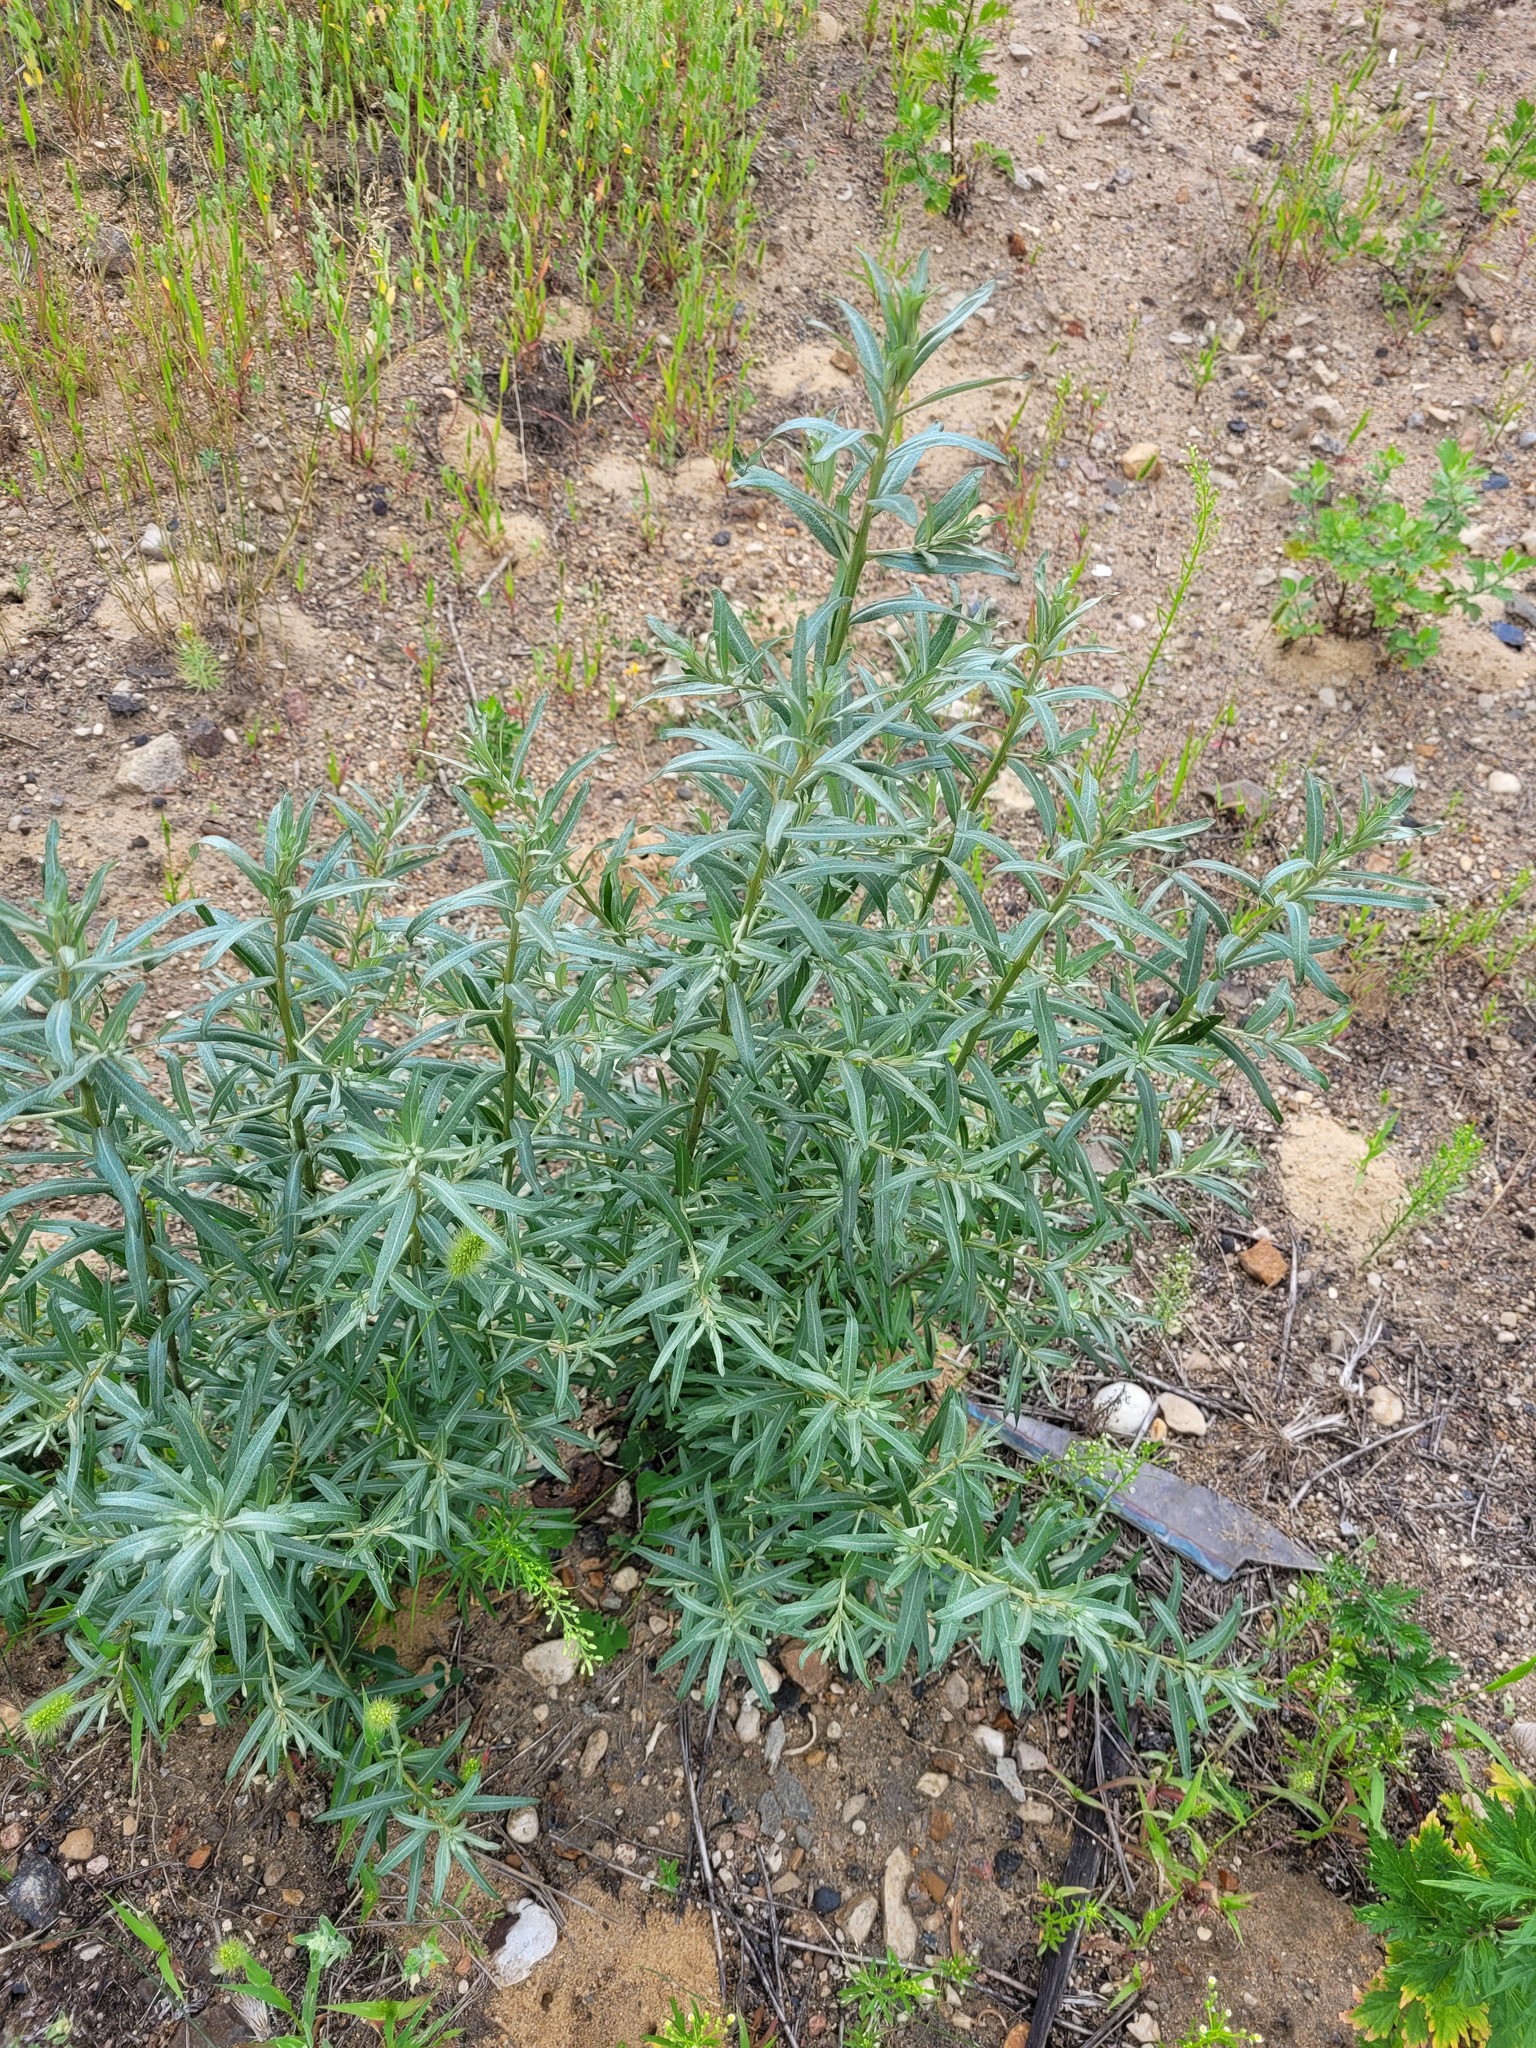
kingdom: Plantae
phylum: Tracheophyta
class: Magnoliopsida
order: Rosales
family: Elaeagnaceae
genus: Hippophae
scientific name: Hippophae rhamnoides
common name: Sea-buckthorn
